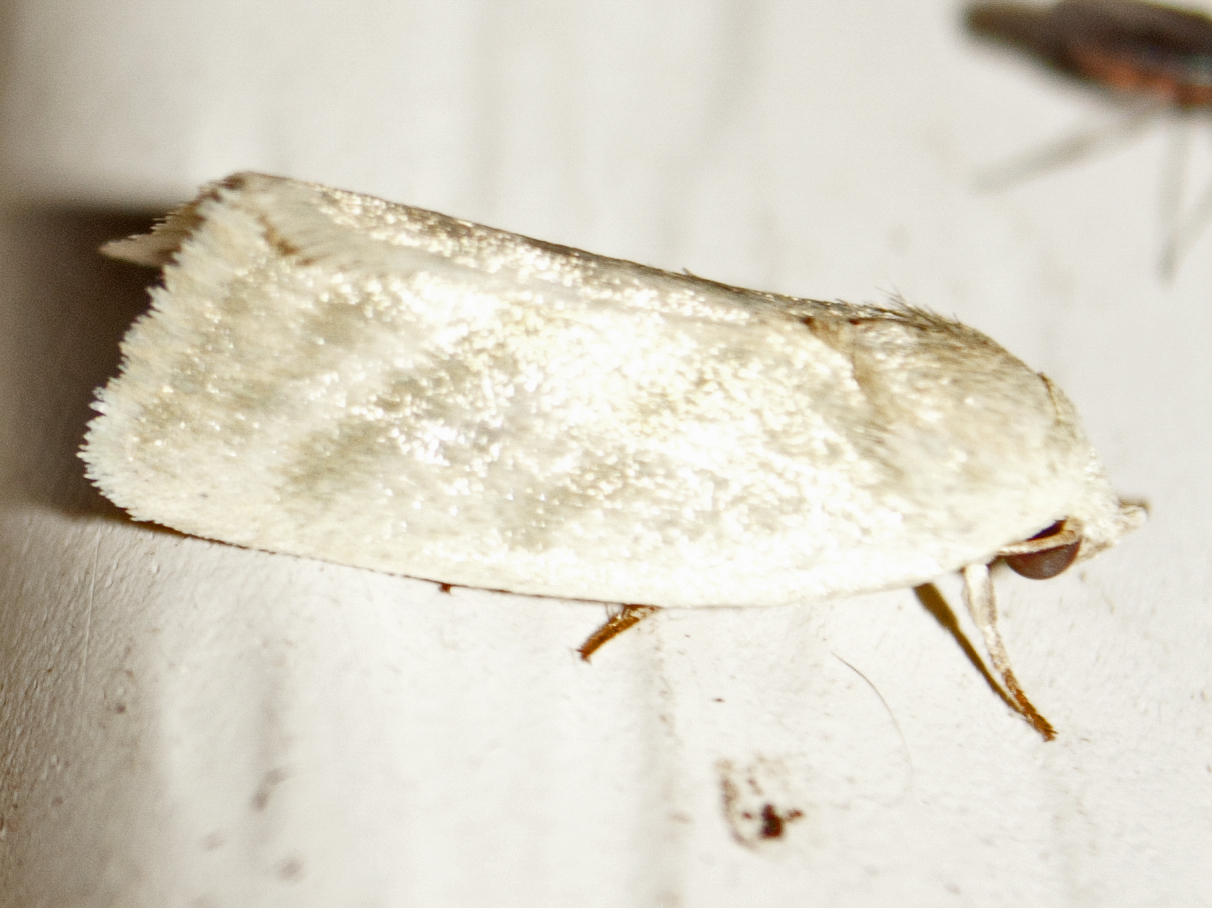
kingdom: Animalia
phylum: Arthropoda
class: Insecta
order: Lepidoptera
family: Nolidae
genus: Earias
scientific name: Earias paralella
